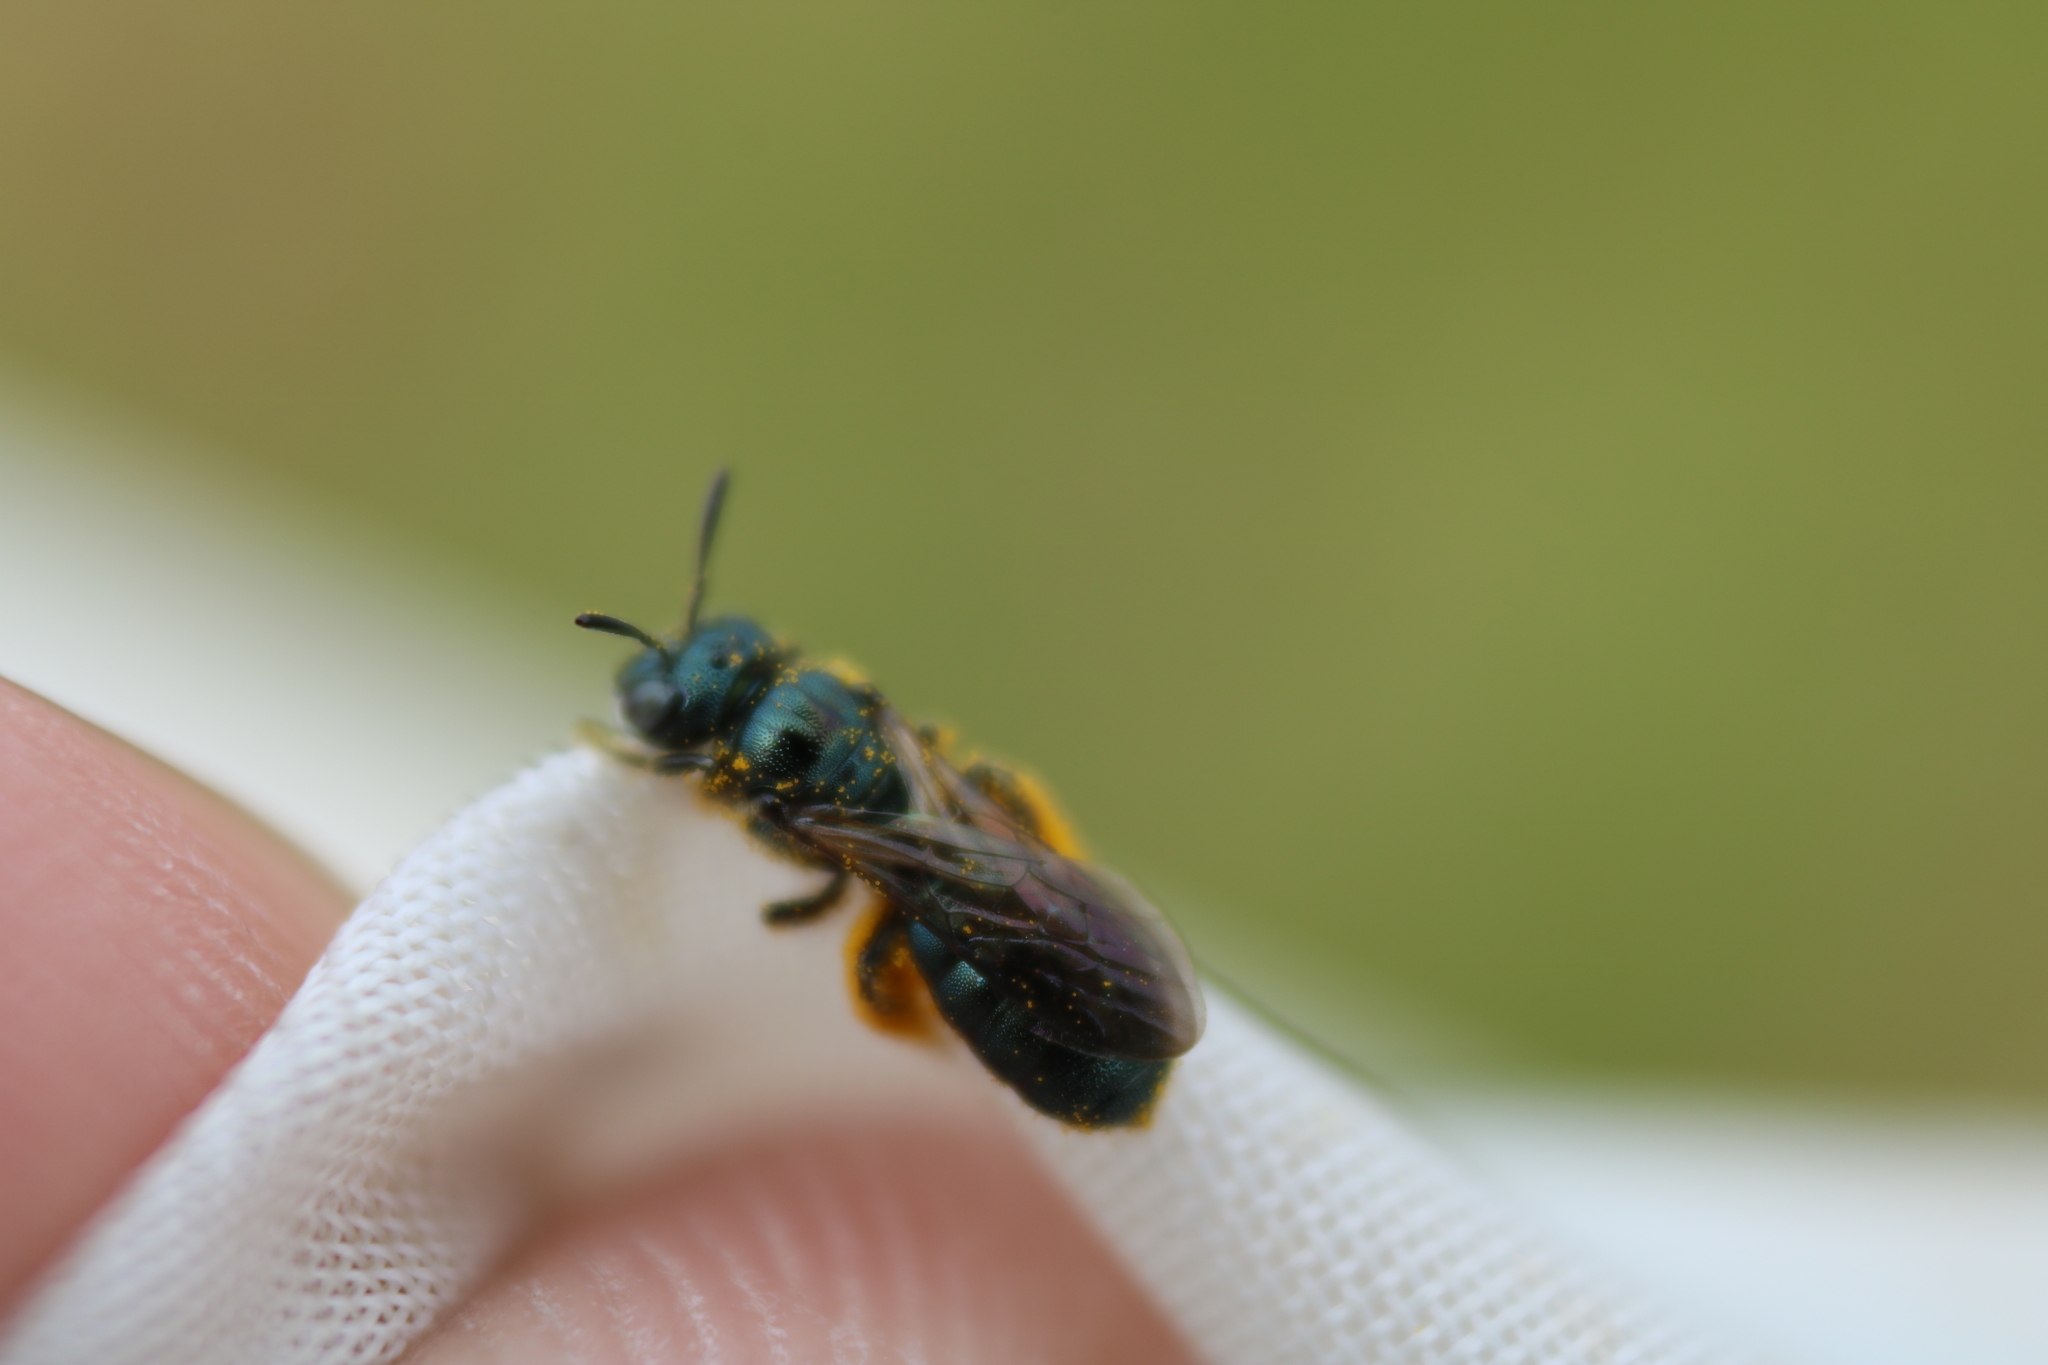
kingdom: Animalia
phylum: Arthropoda
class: Insecta
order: Hymenoptera
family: Apidae
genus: Ceratina
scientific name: Ceratina calcarata
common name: Spurred carpenter bee
